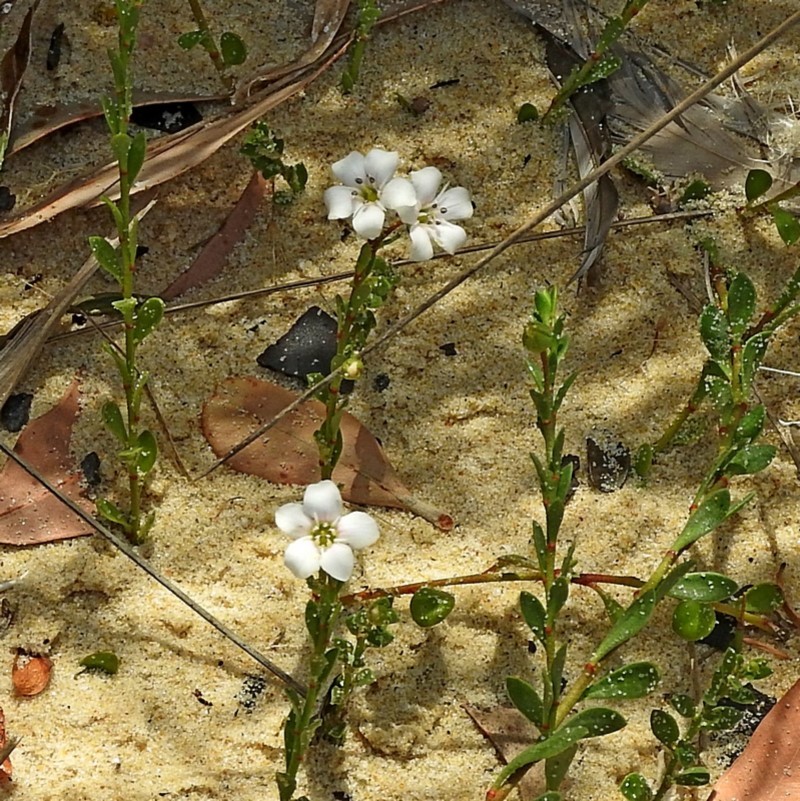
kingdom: Plantae
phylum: Tracheophyta
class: Magnoliopsida
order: Ericales
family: Primulaceae
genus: Samolus
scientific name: Samolus repens
